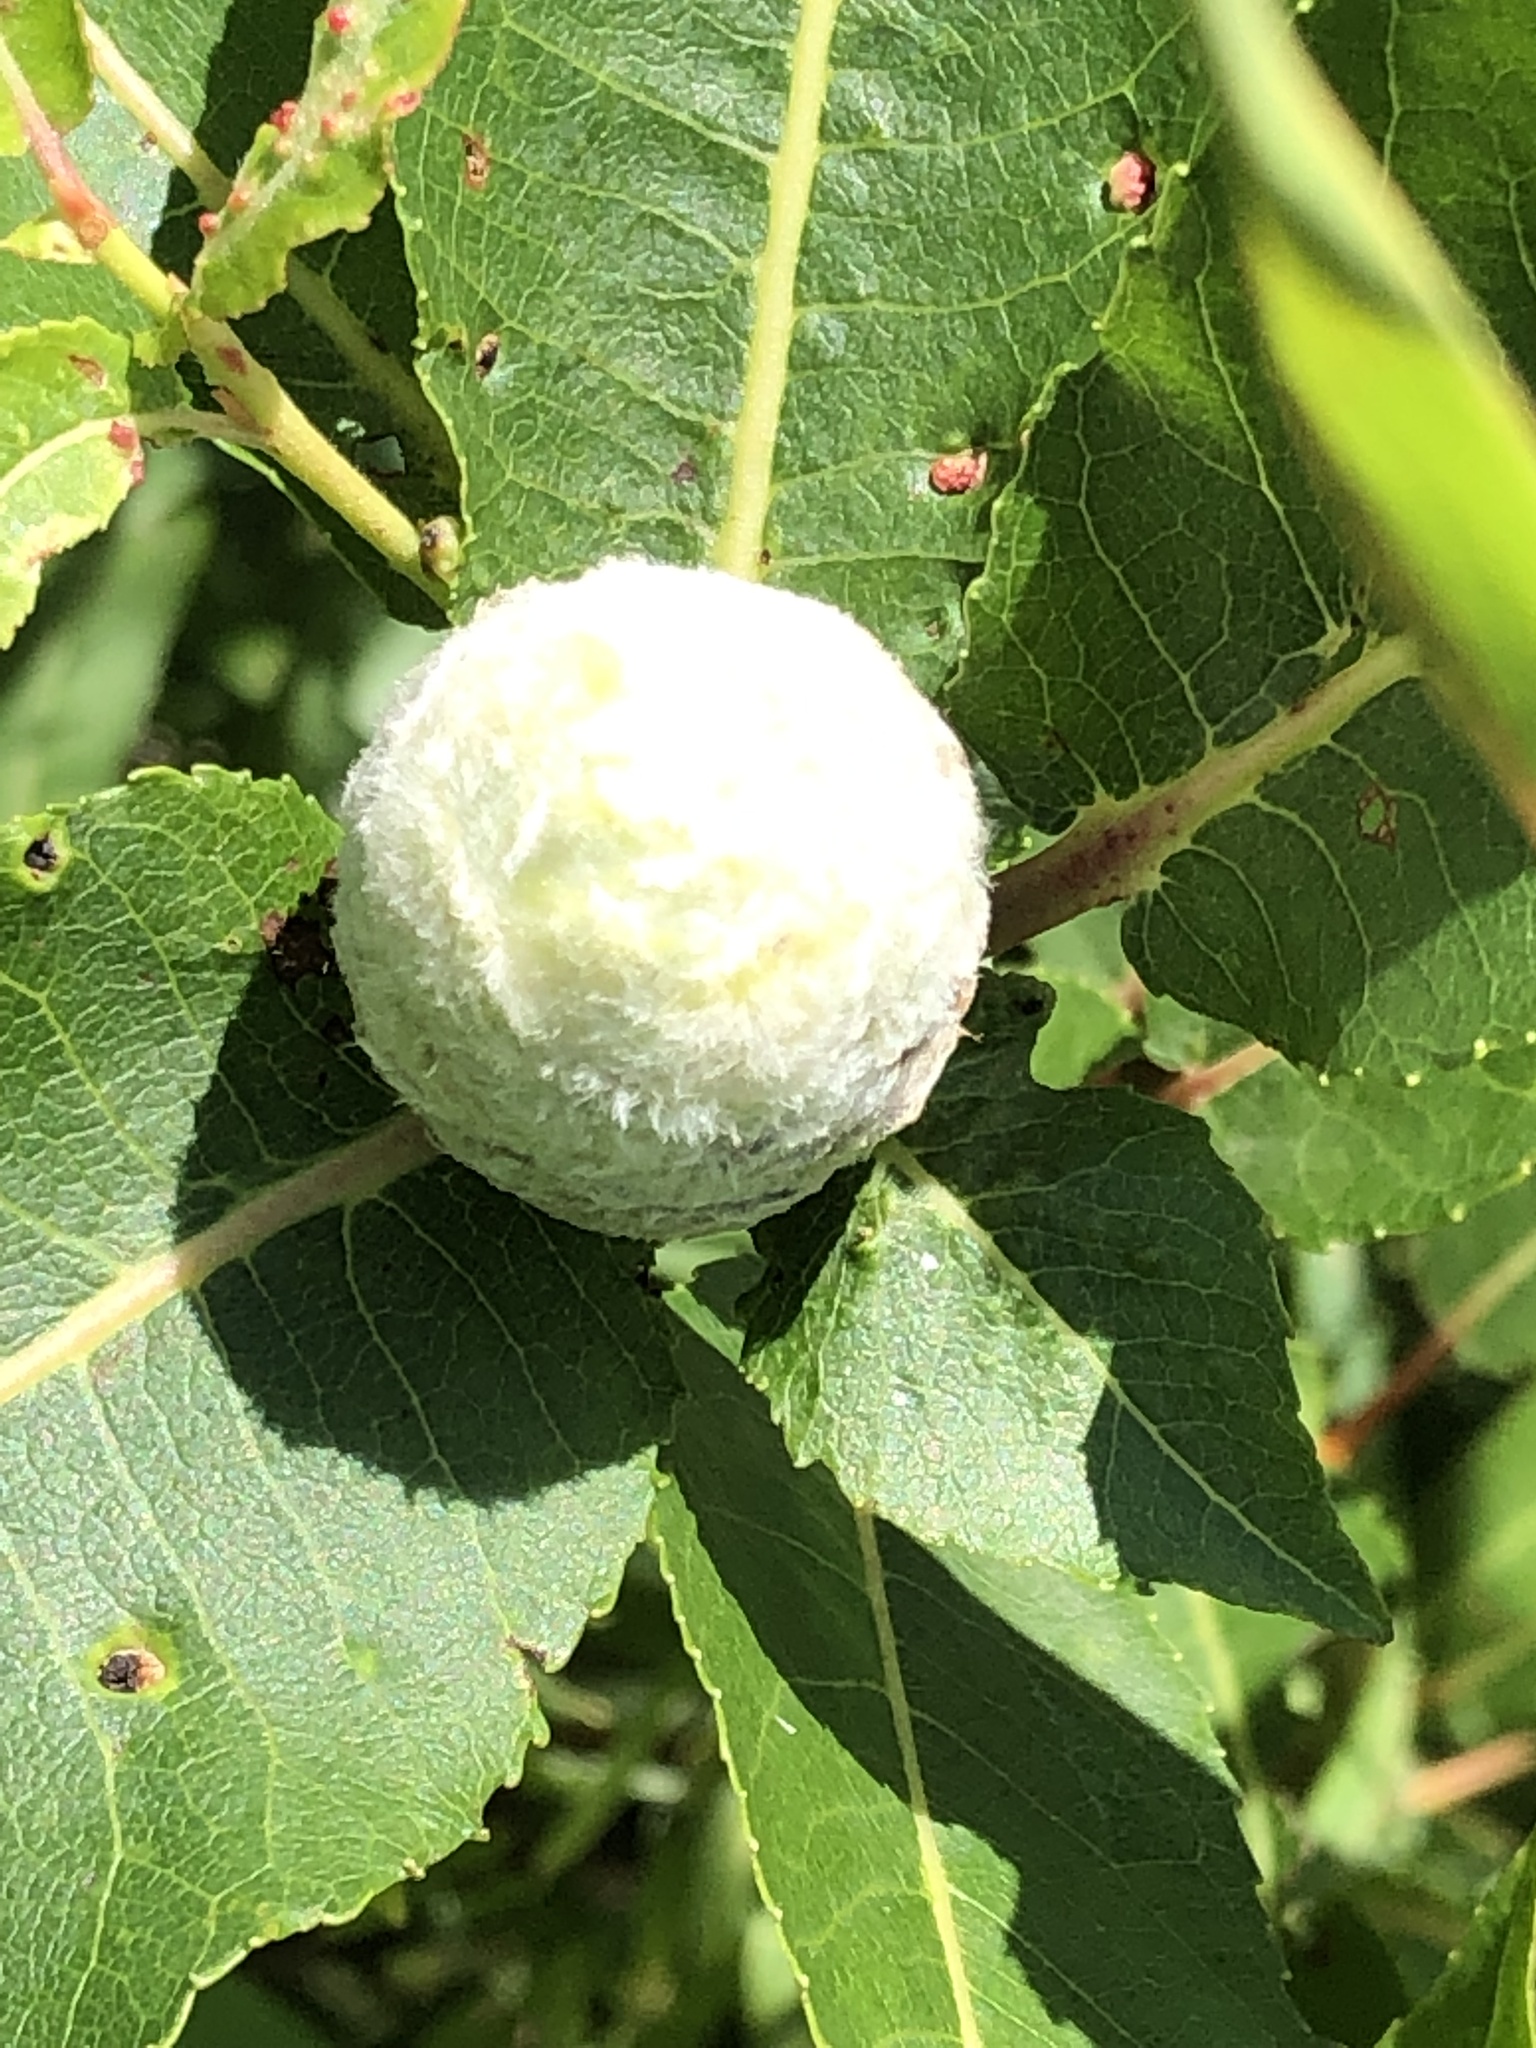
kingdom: Animalia
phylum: Arthropoda
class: Insecta
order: Diptera
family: Cecidomyiidae
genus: Rabdophaga
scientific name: Rabdophaga strobiloides
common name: Willow pinecone gall midge
